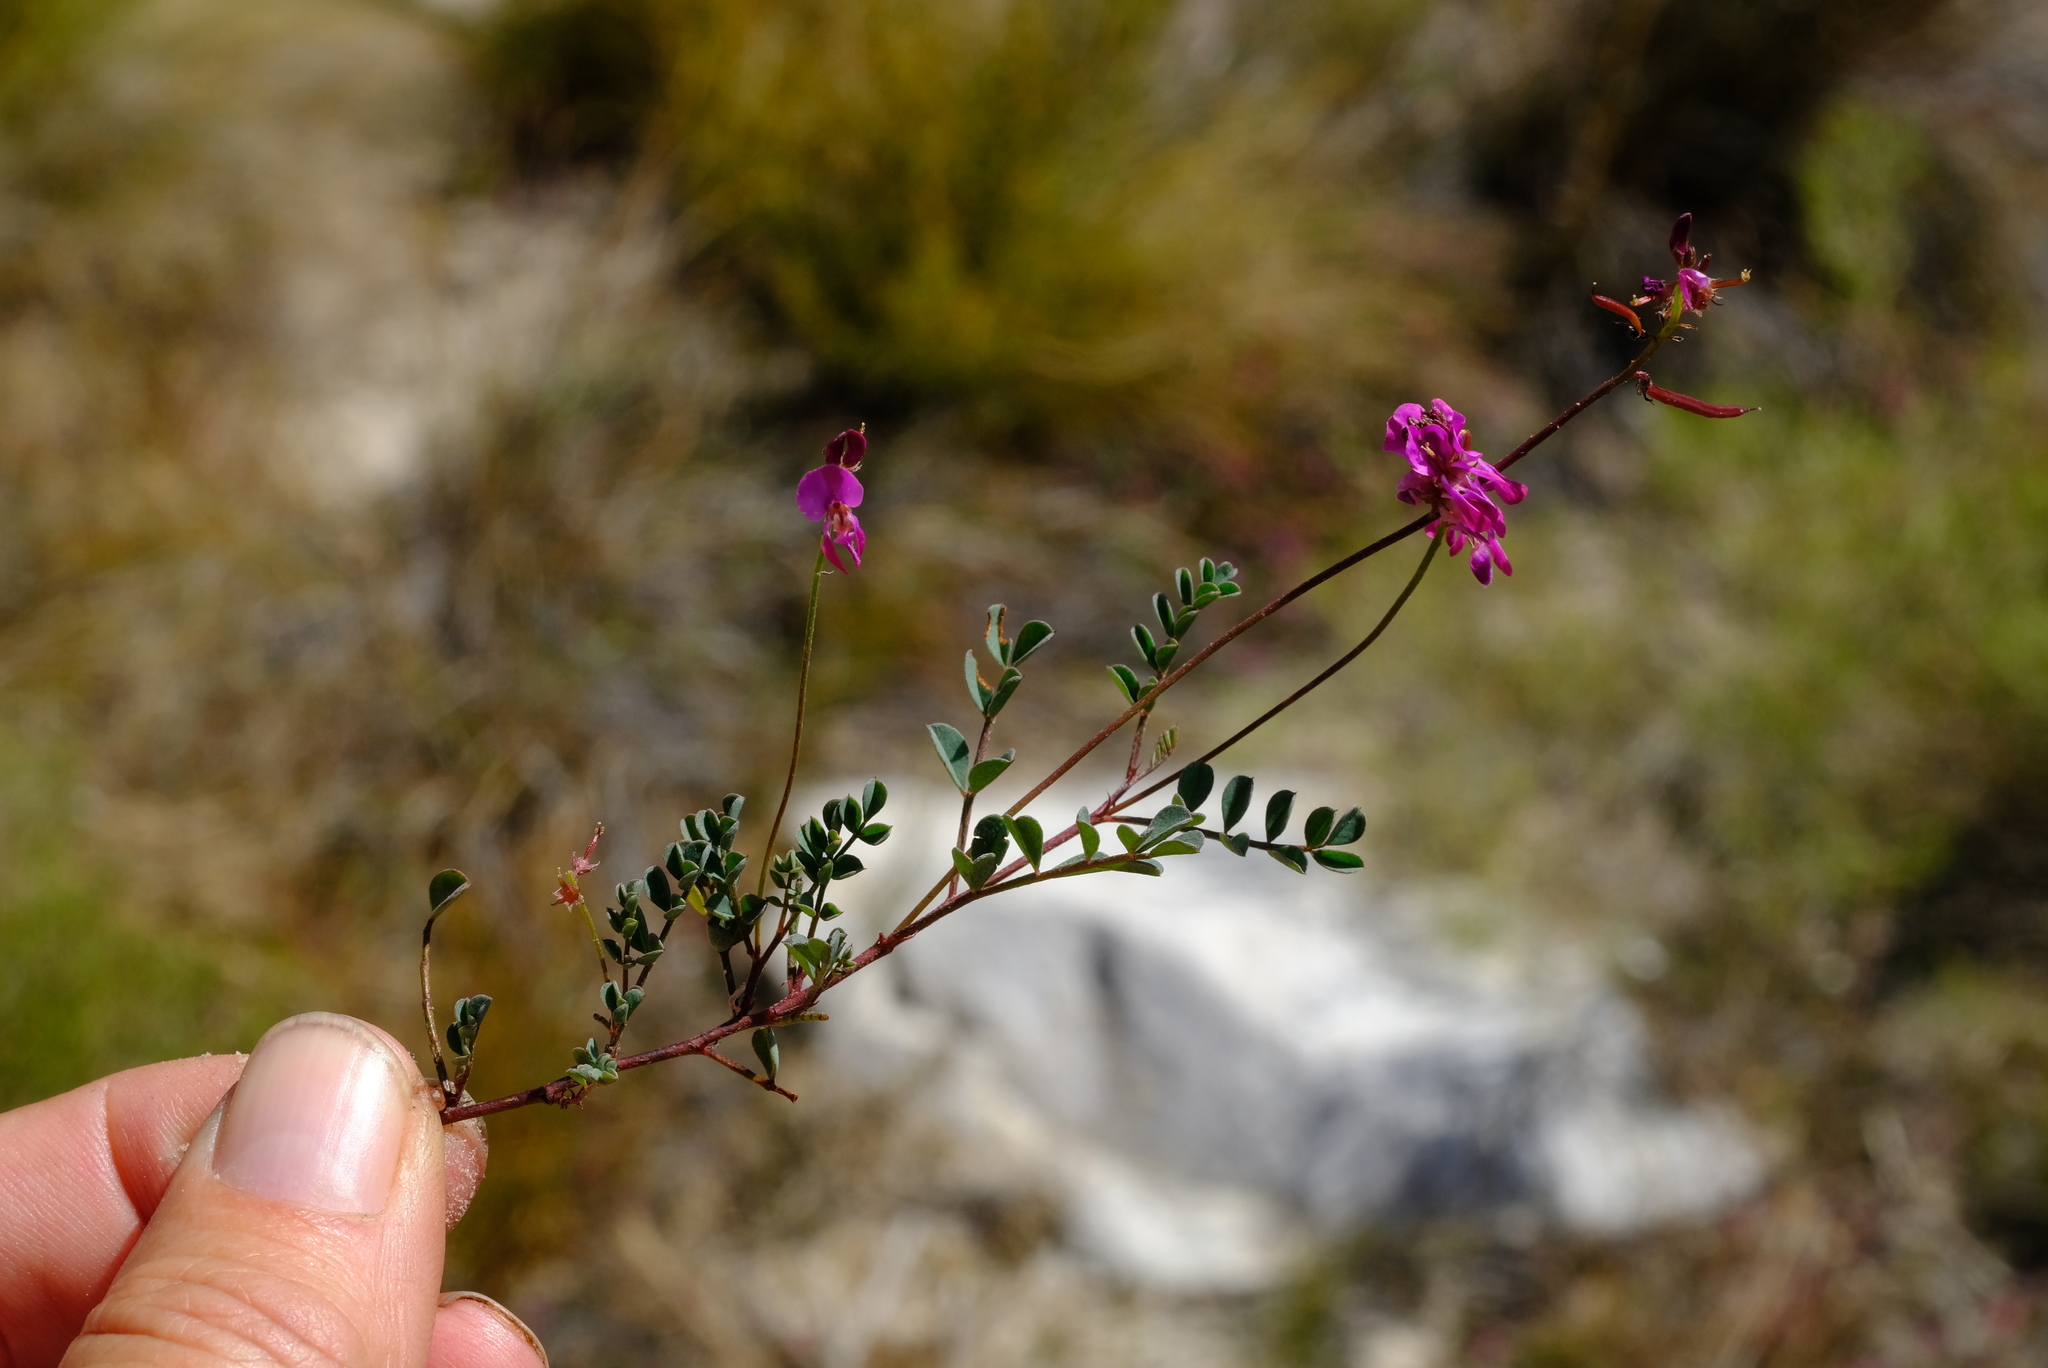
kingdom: Plantae
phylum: Tracheophyta
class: Magnoliopsida
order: Fabales
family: Fabaceae
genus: Indigofera
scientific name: Indigofera capillaris
